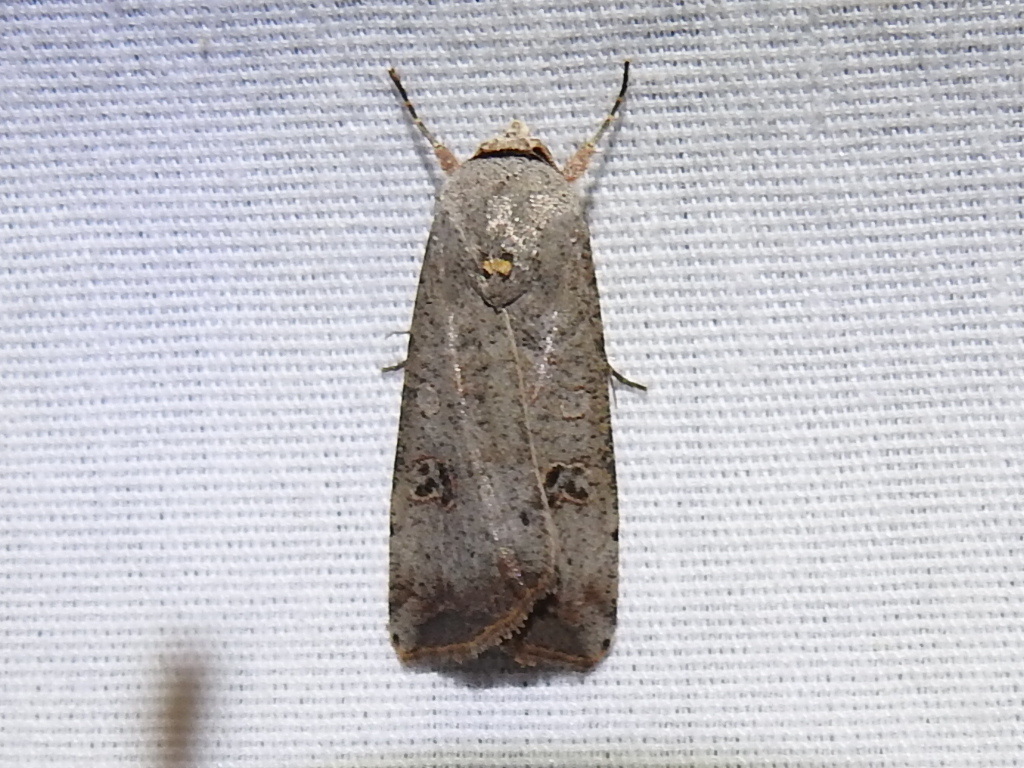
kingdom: Animalia
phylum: Arthropoda
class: Insecta
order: Lepidoptera
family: Noctuidae
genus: Anicla
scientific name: Anicla infecta
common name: Green cutworm
